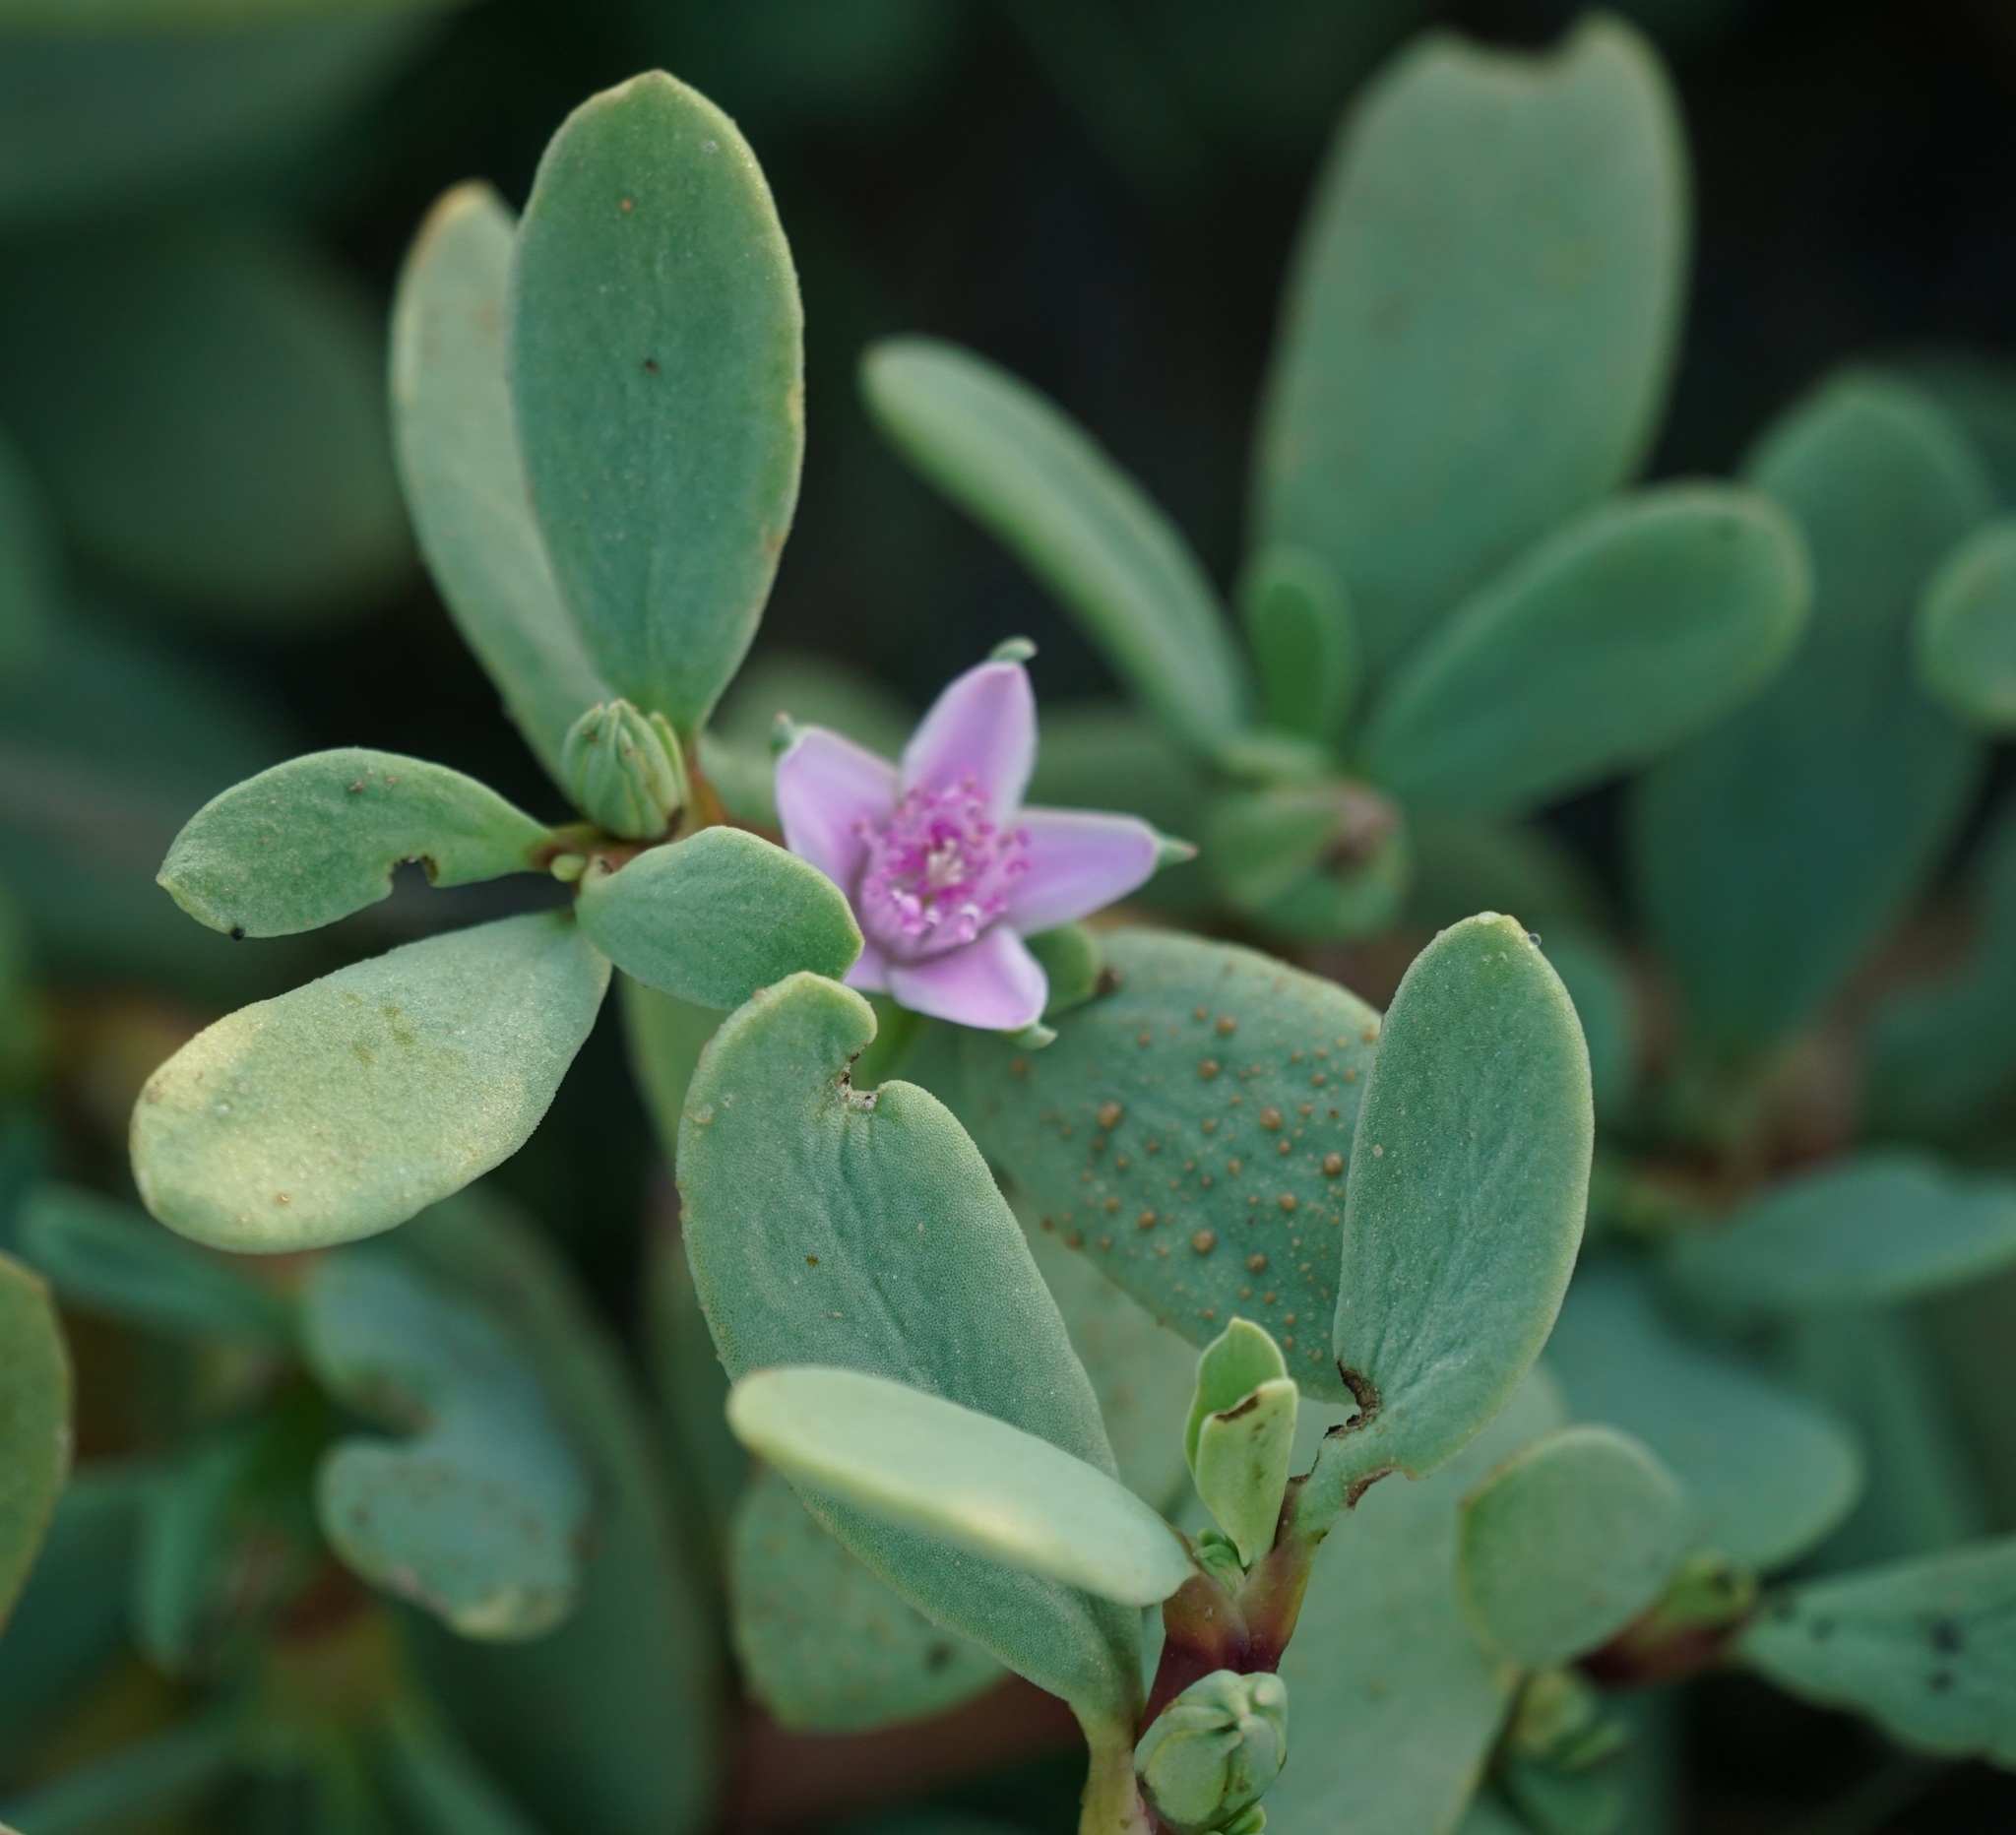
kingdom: Plantae
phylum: Tracheophyta
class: Magnoliopsida
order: Caryophyllales
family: Aizoaceae
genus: Sesuvium
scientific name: Sesuvium portulacastrum
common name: Sea-purslane
